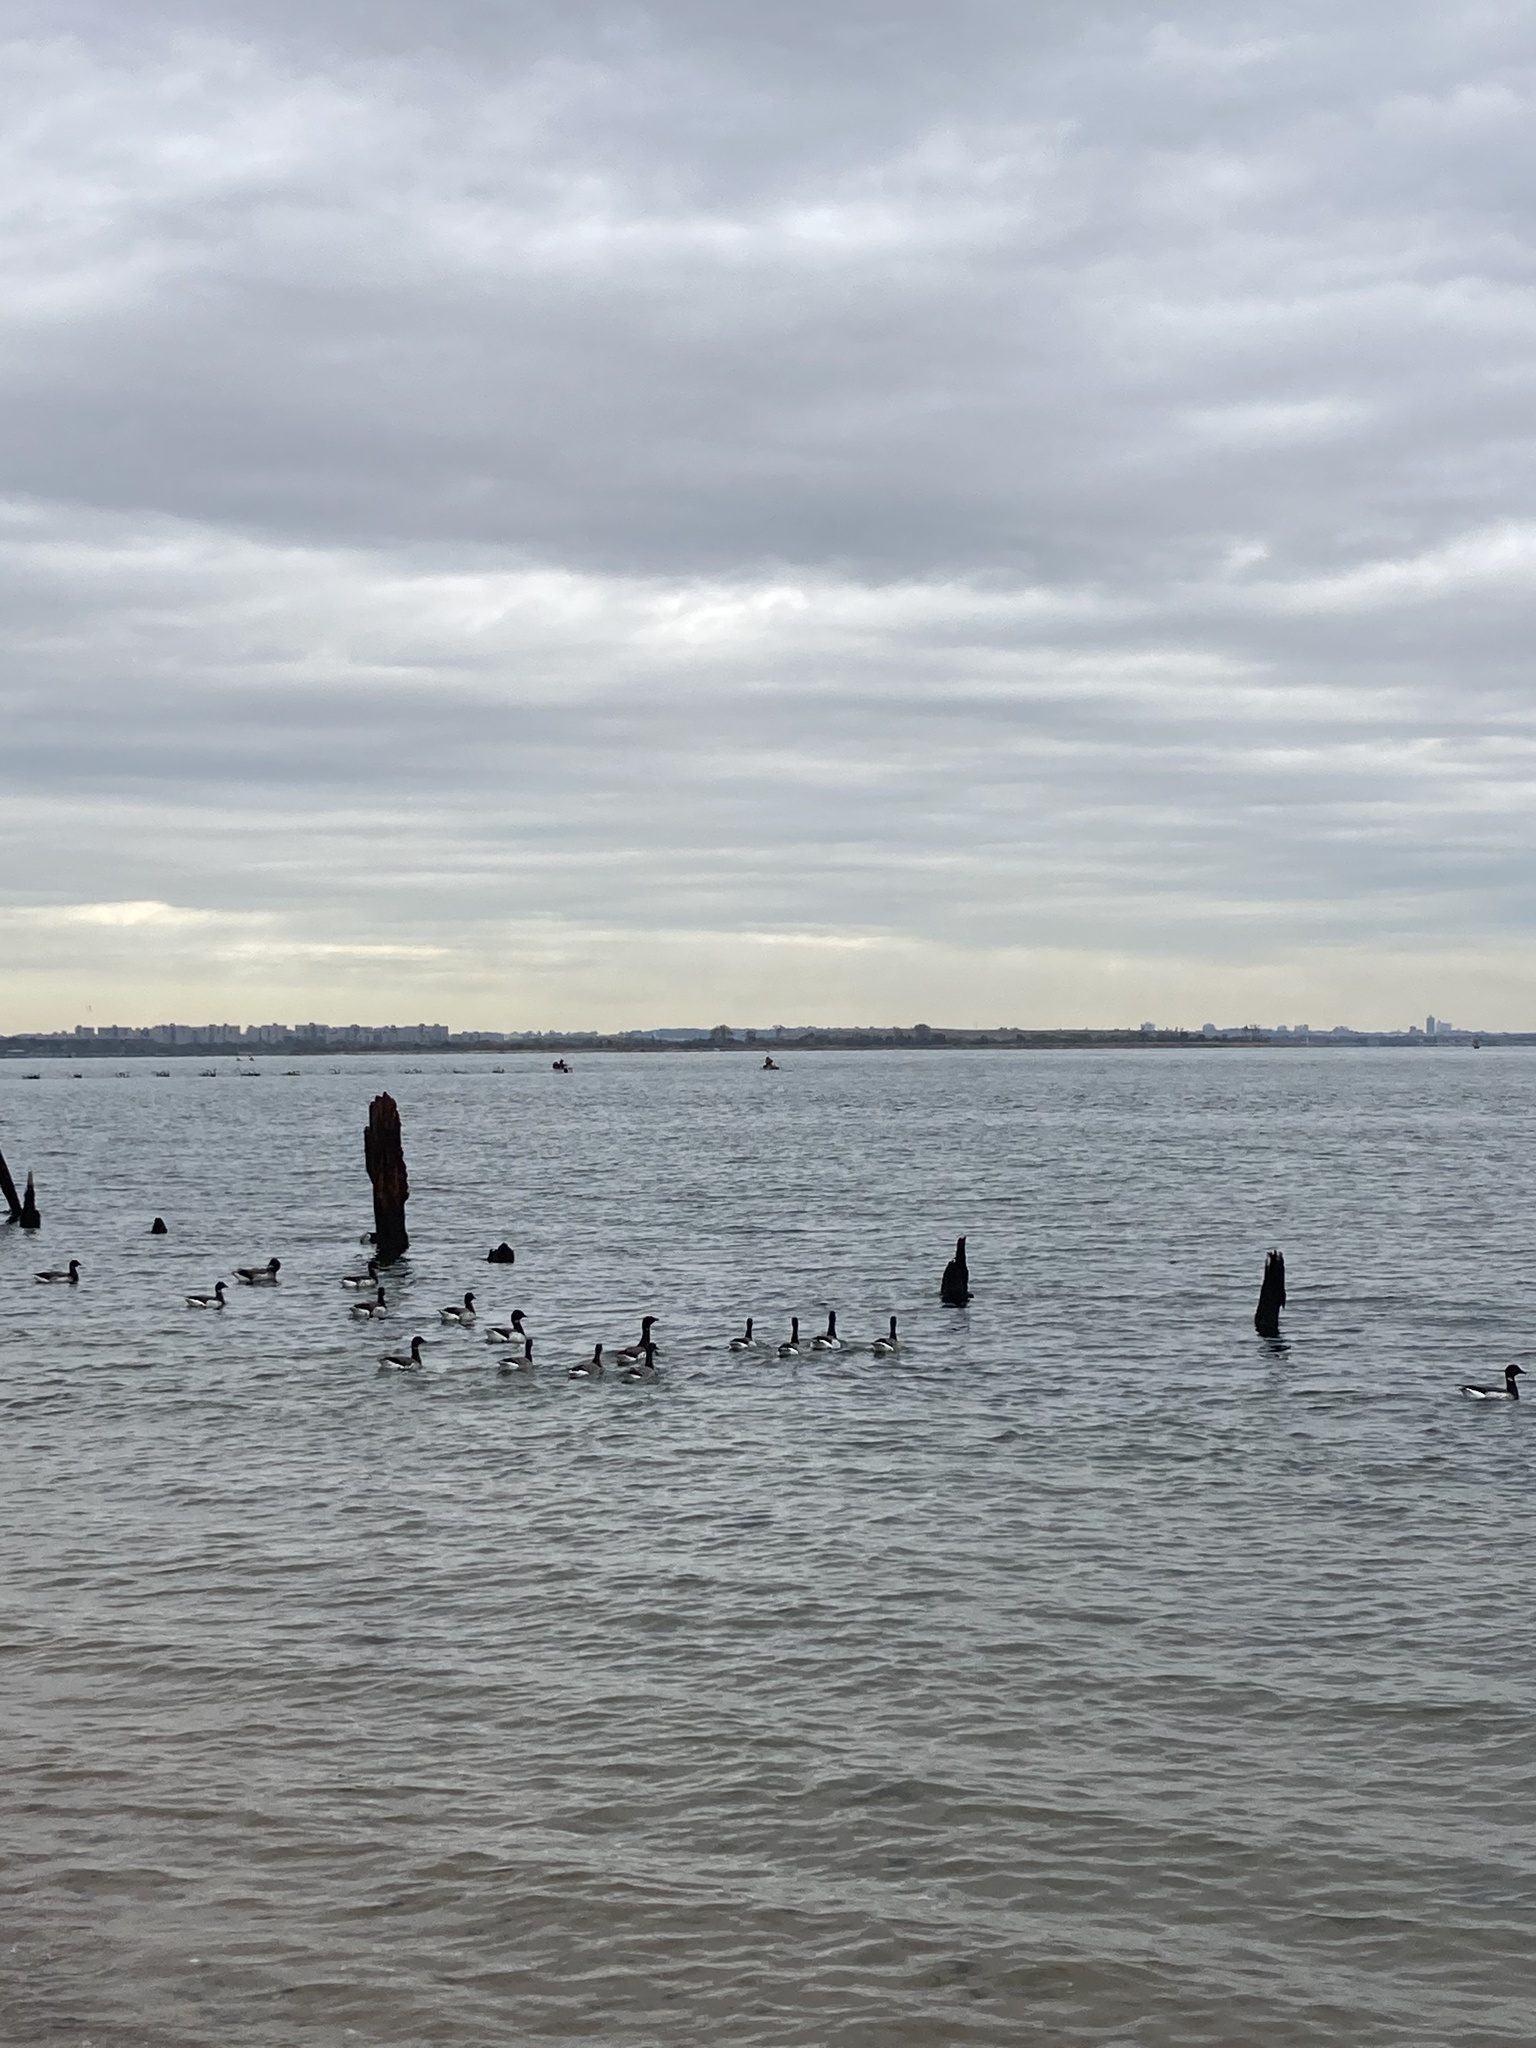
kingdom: Animalia
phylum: Chordata
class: Aves
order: Anseriformes
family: Anatidae
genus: Branta
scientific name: Branta bernicla
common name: Brant goose
